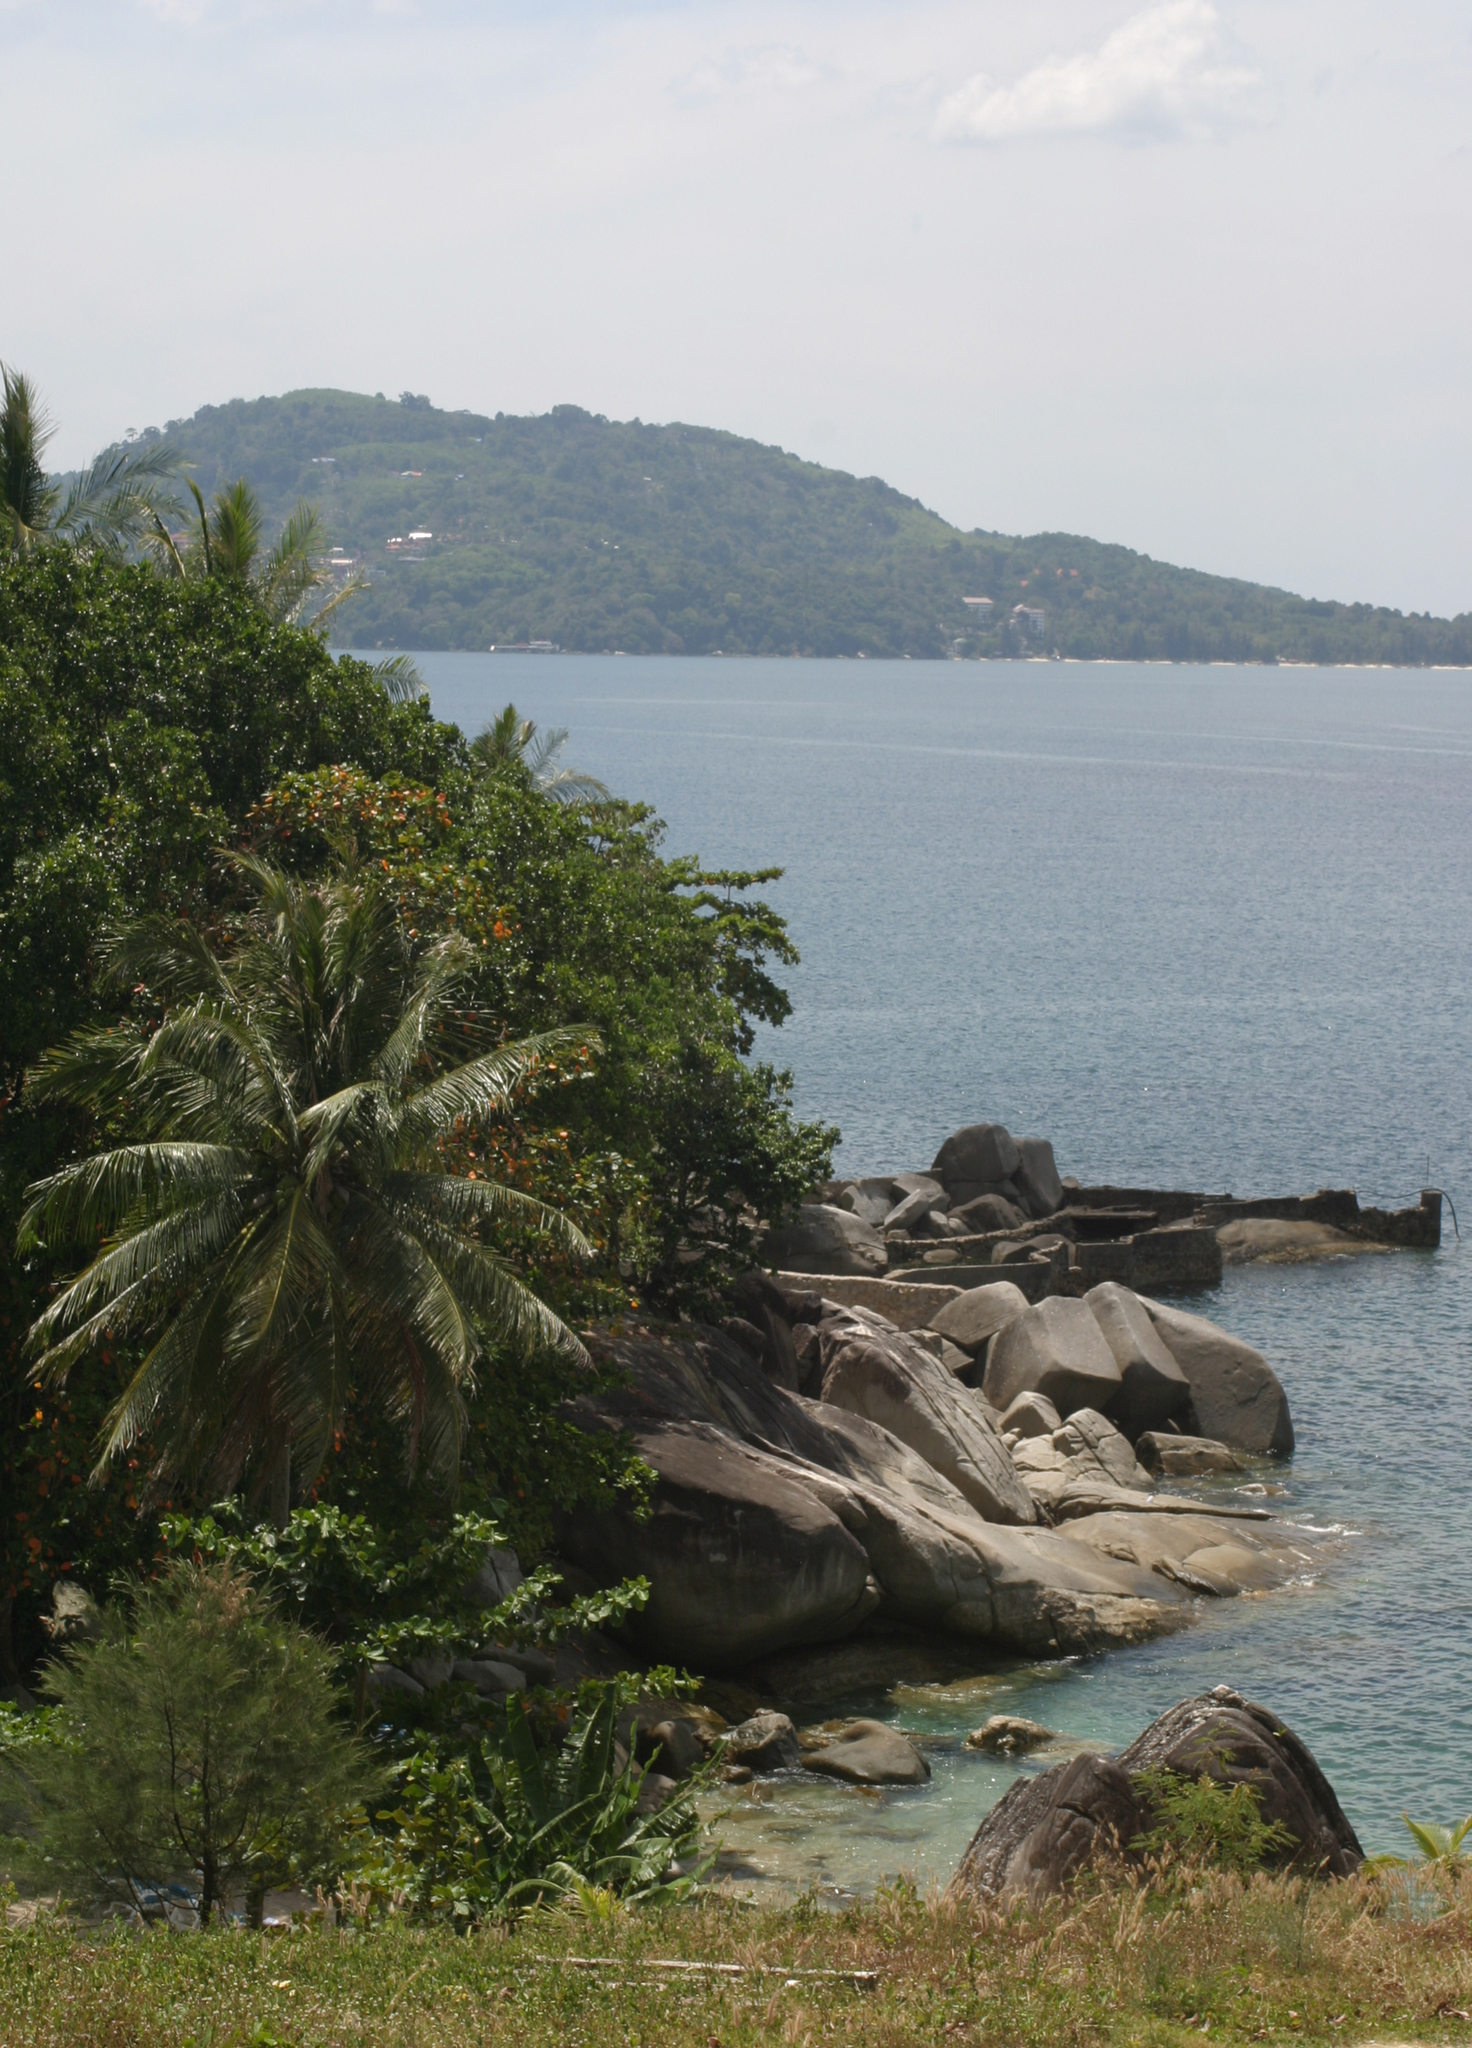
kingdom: Plantae
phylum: Tracheophyta
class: Liliopsida
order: Arecales
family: Arecaceae
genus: Cocos
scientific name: Cocos nucifera
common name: Coconut palm
